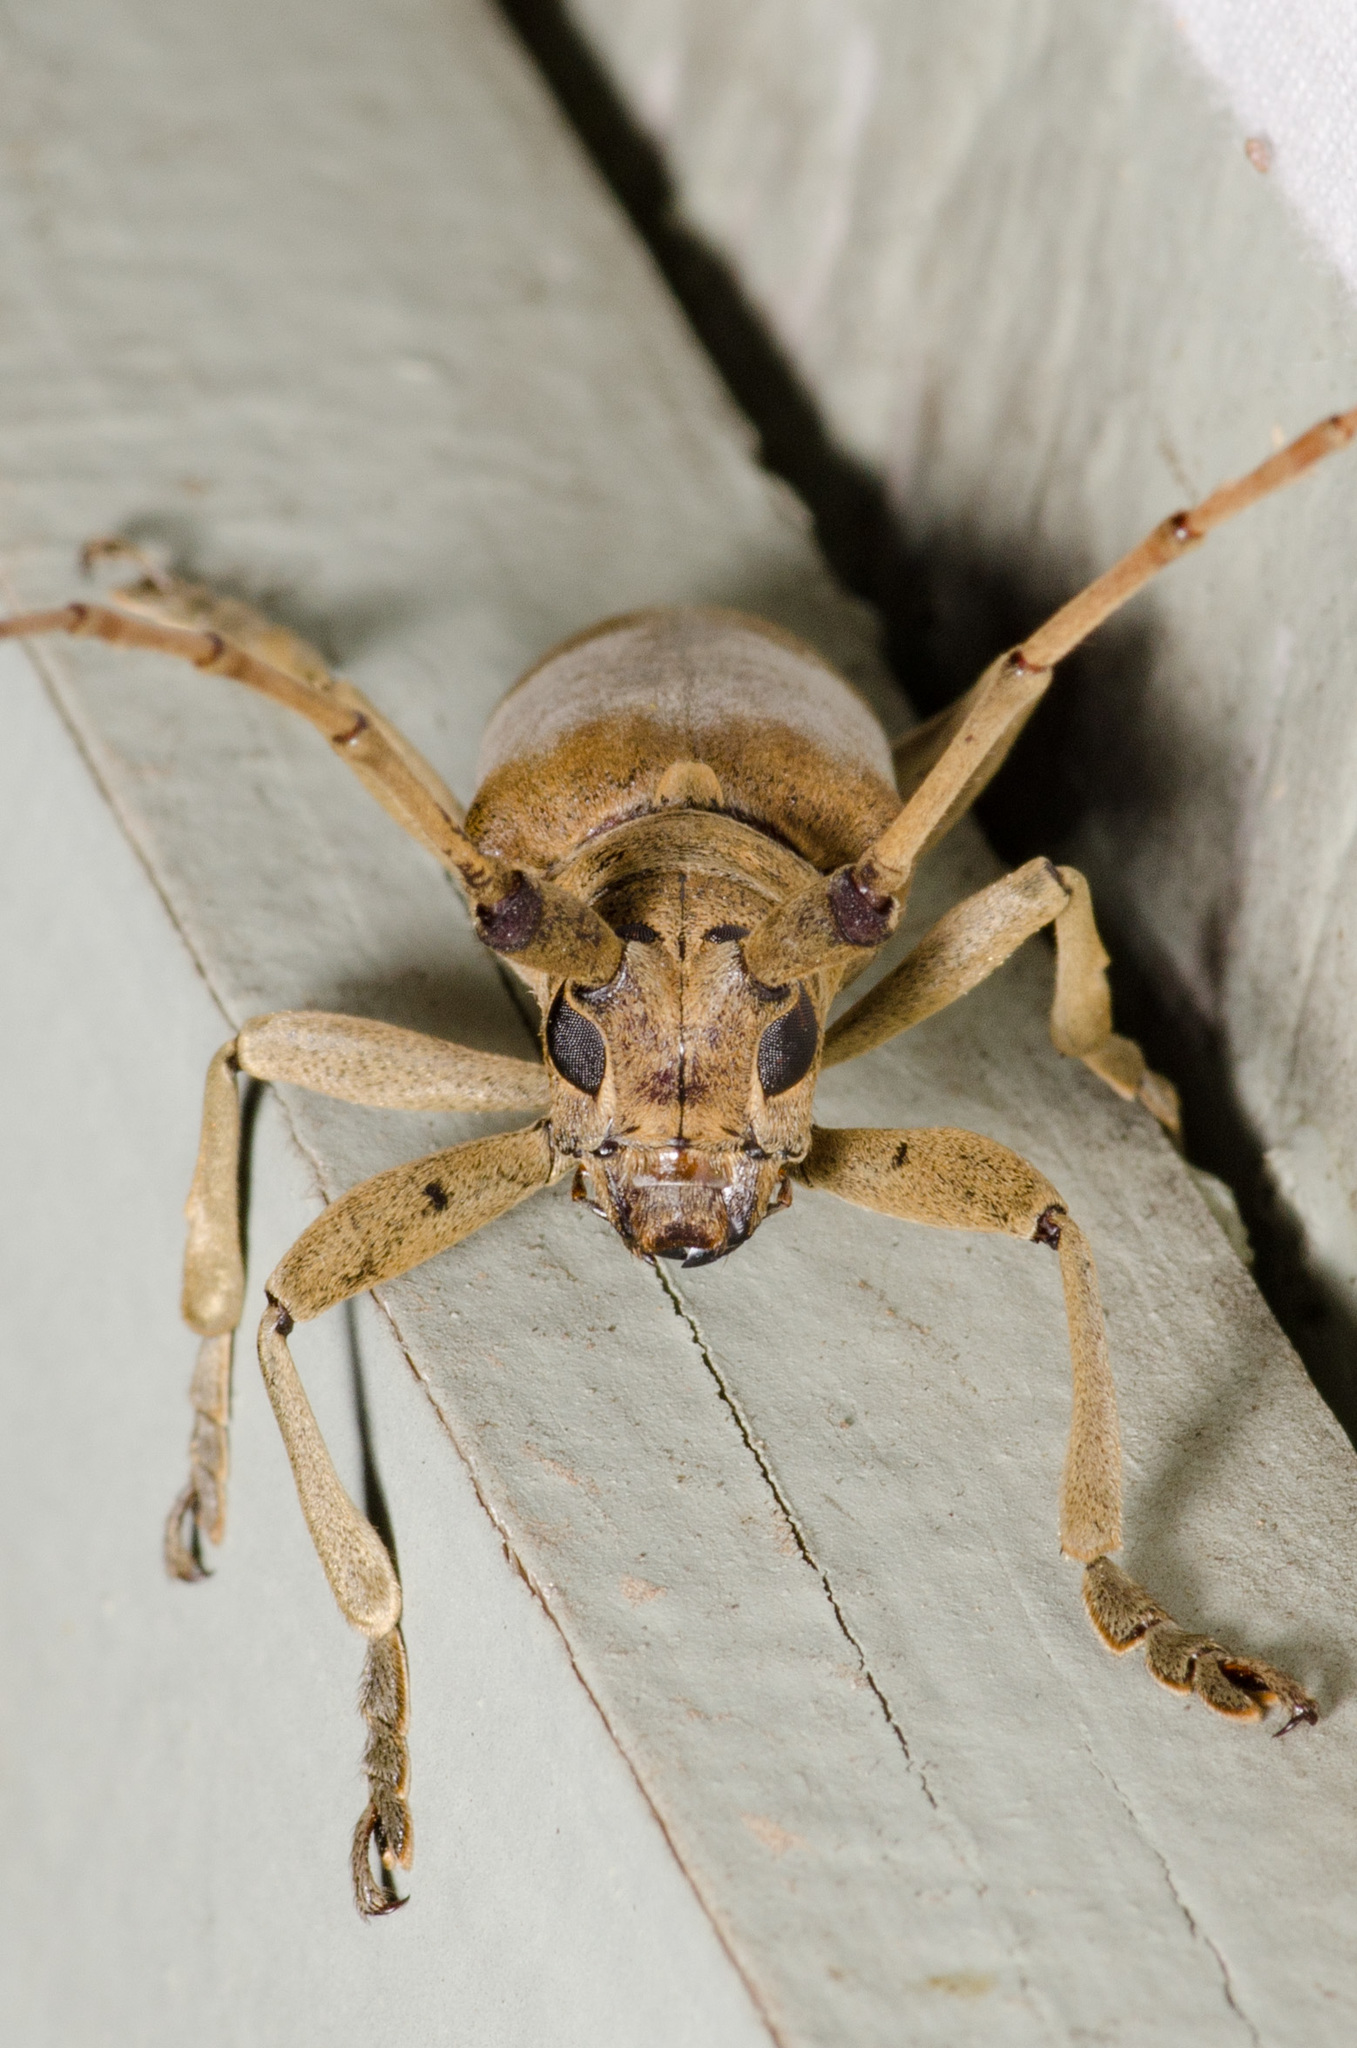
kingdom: Animalia
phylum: Arthropoda
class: Insecta
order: Coleoptera
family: Cerambycidae
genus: Goes
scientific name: Goes fisheri
